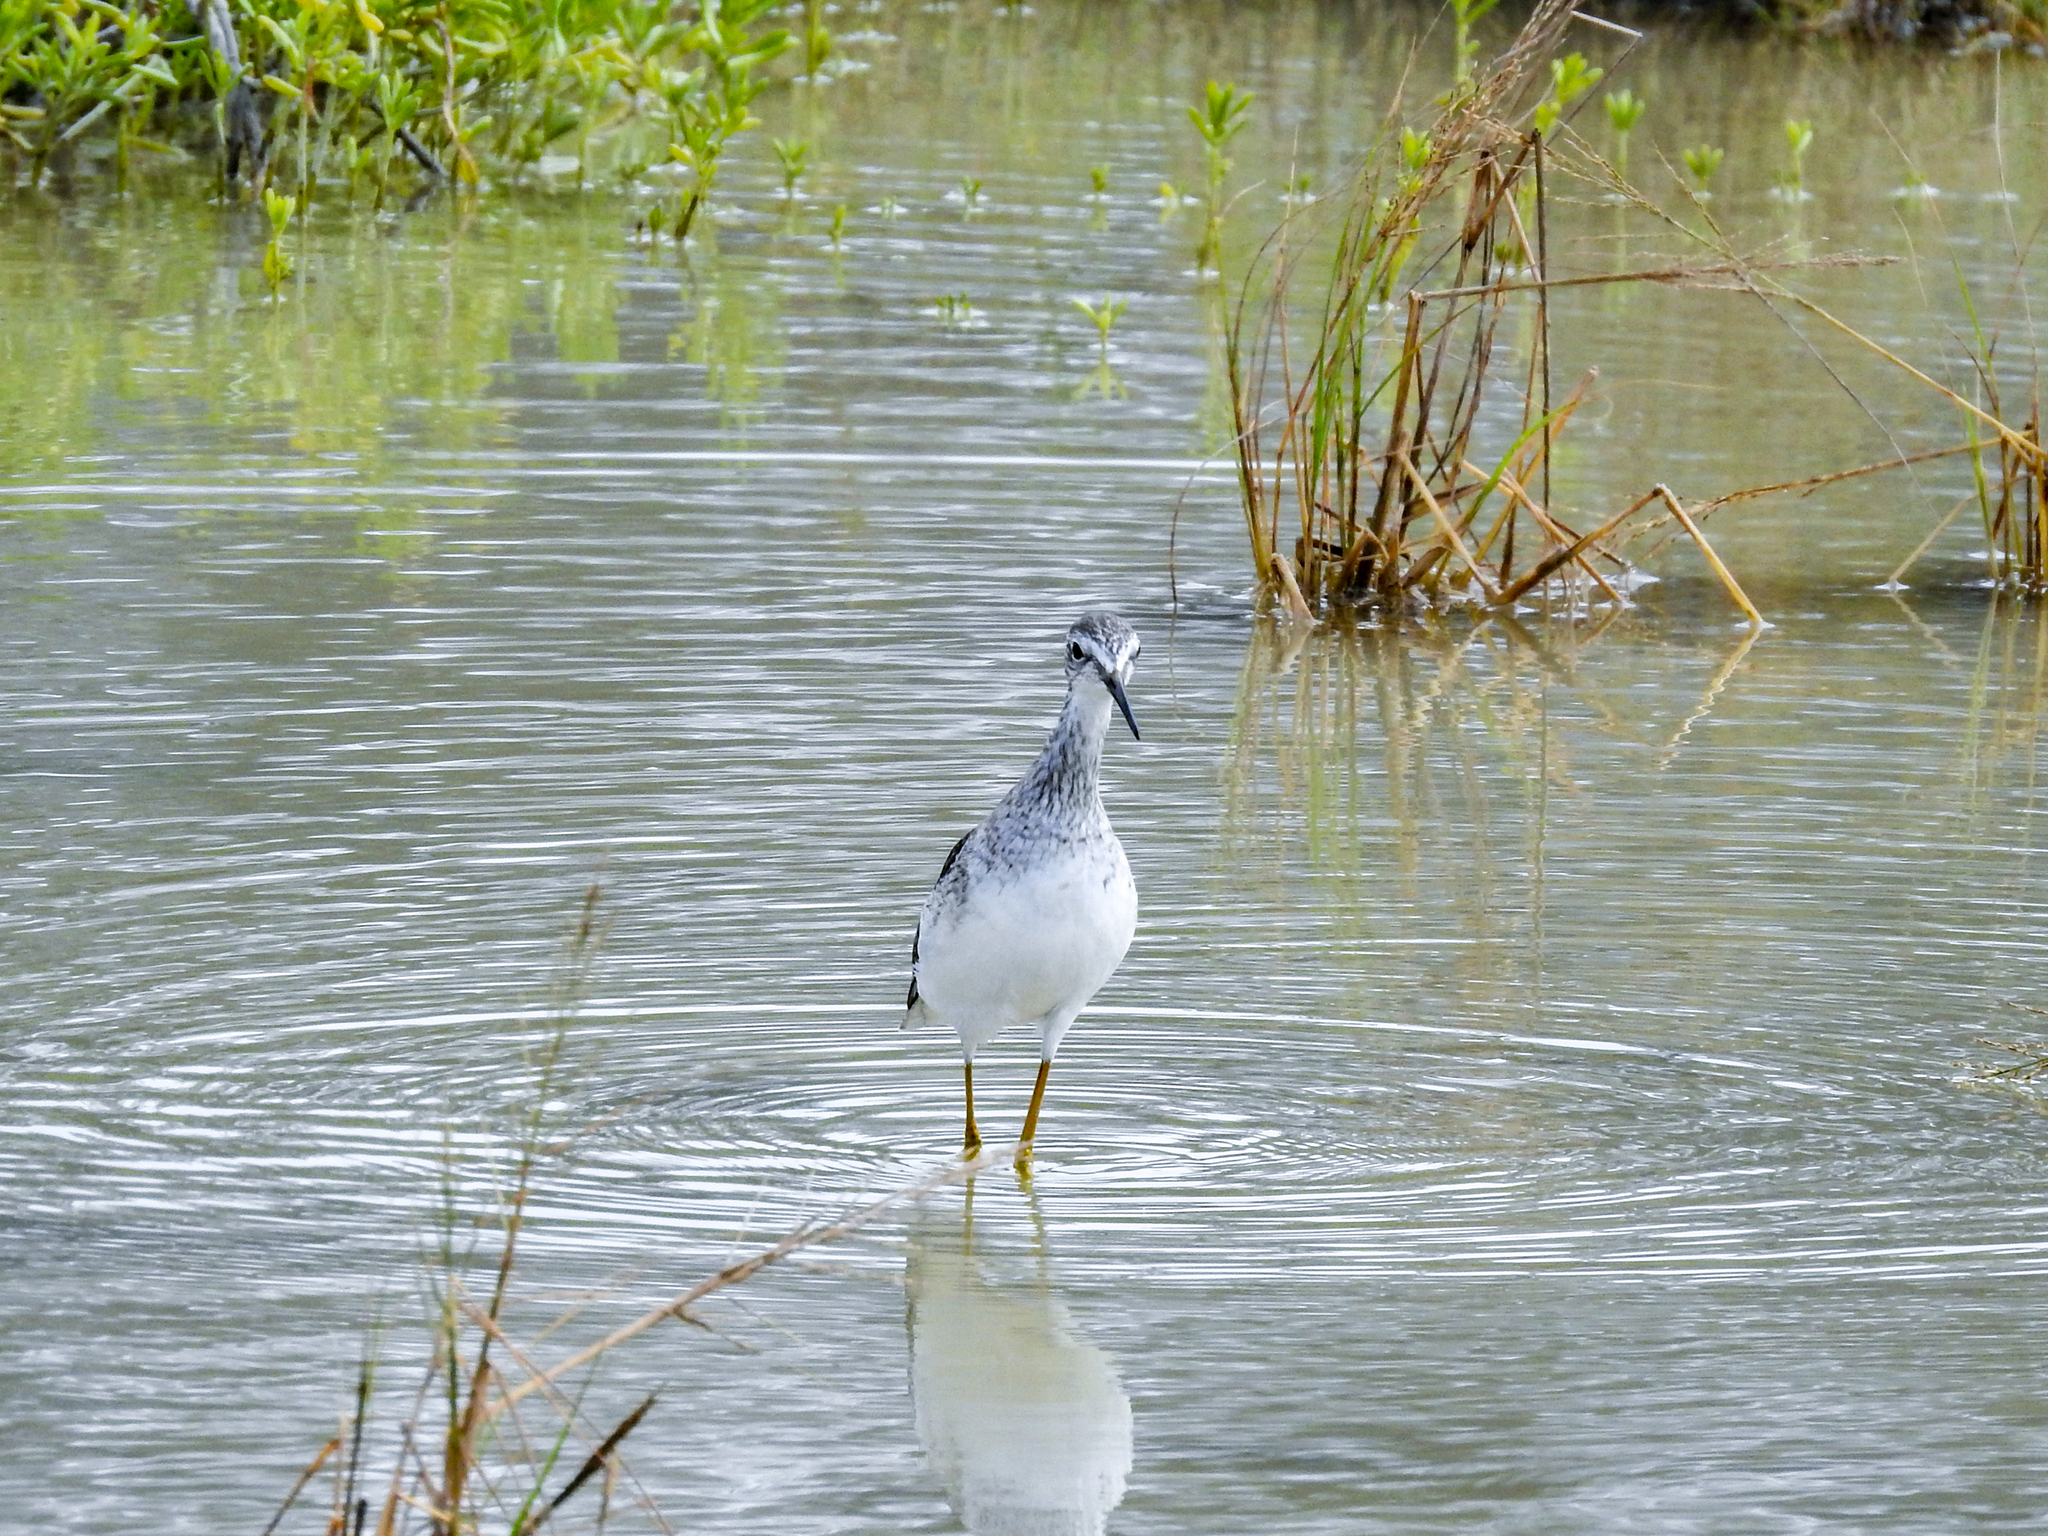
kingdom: Animalia
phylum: Chordata
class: Aves
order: Charadriiformes
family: Scolopacidae
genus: Tringa
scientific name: Tringa melanoleuca
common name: Greater yellowlegs
